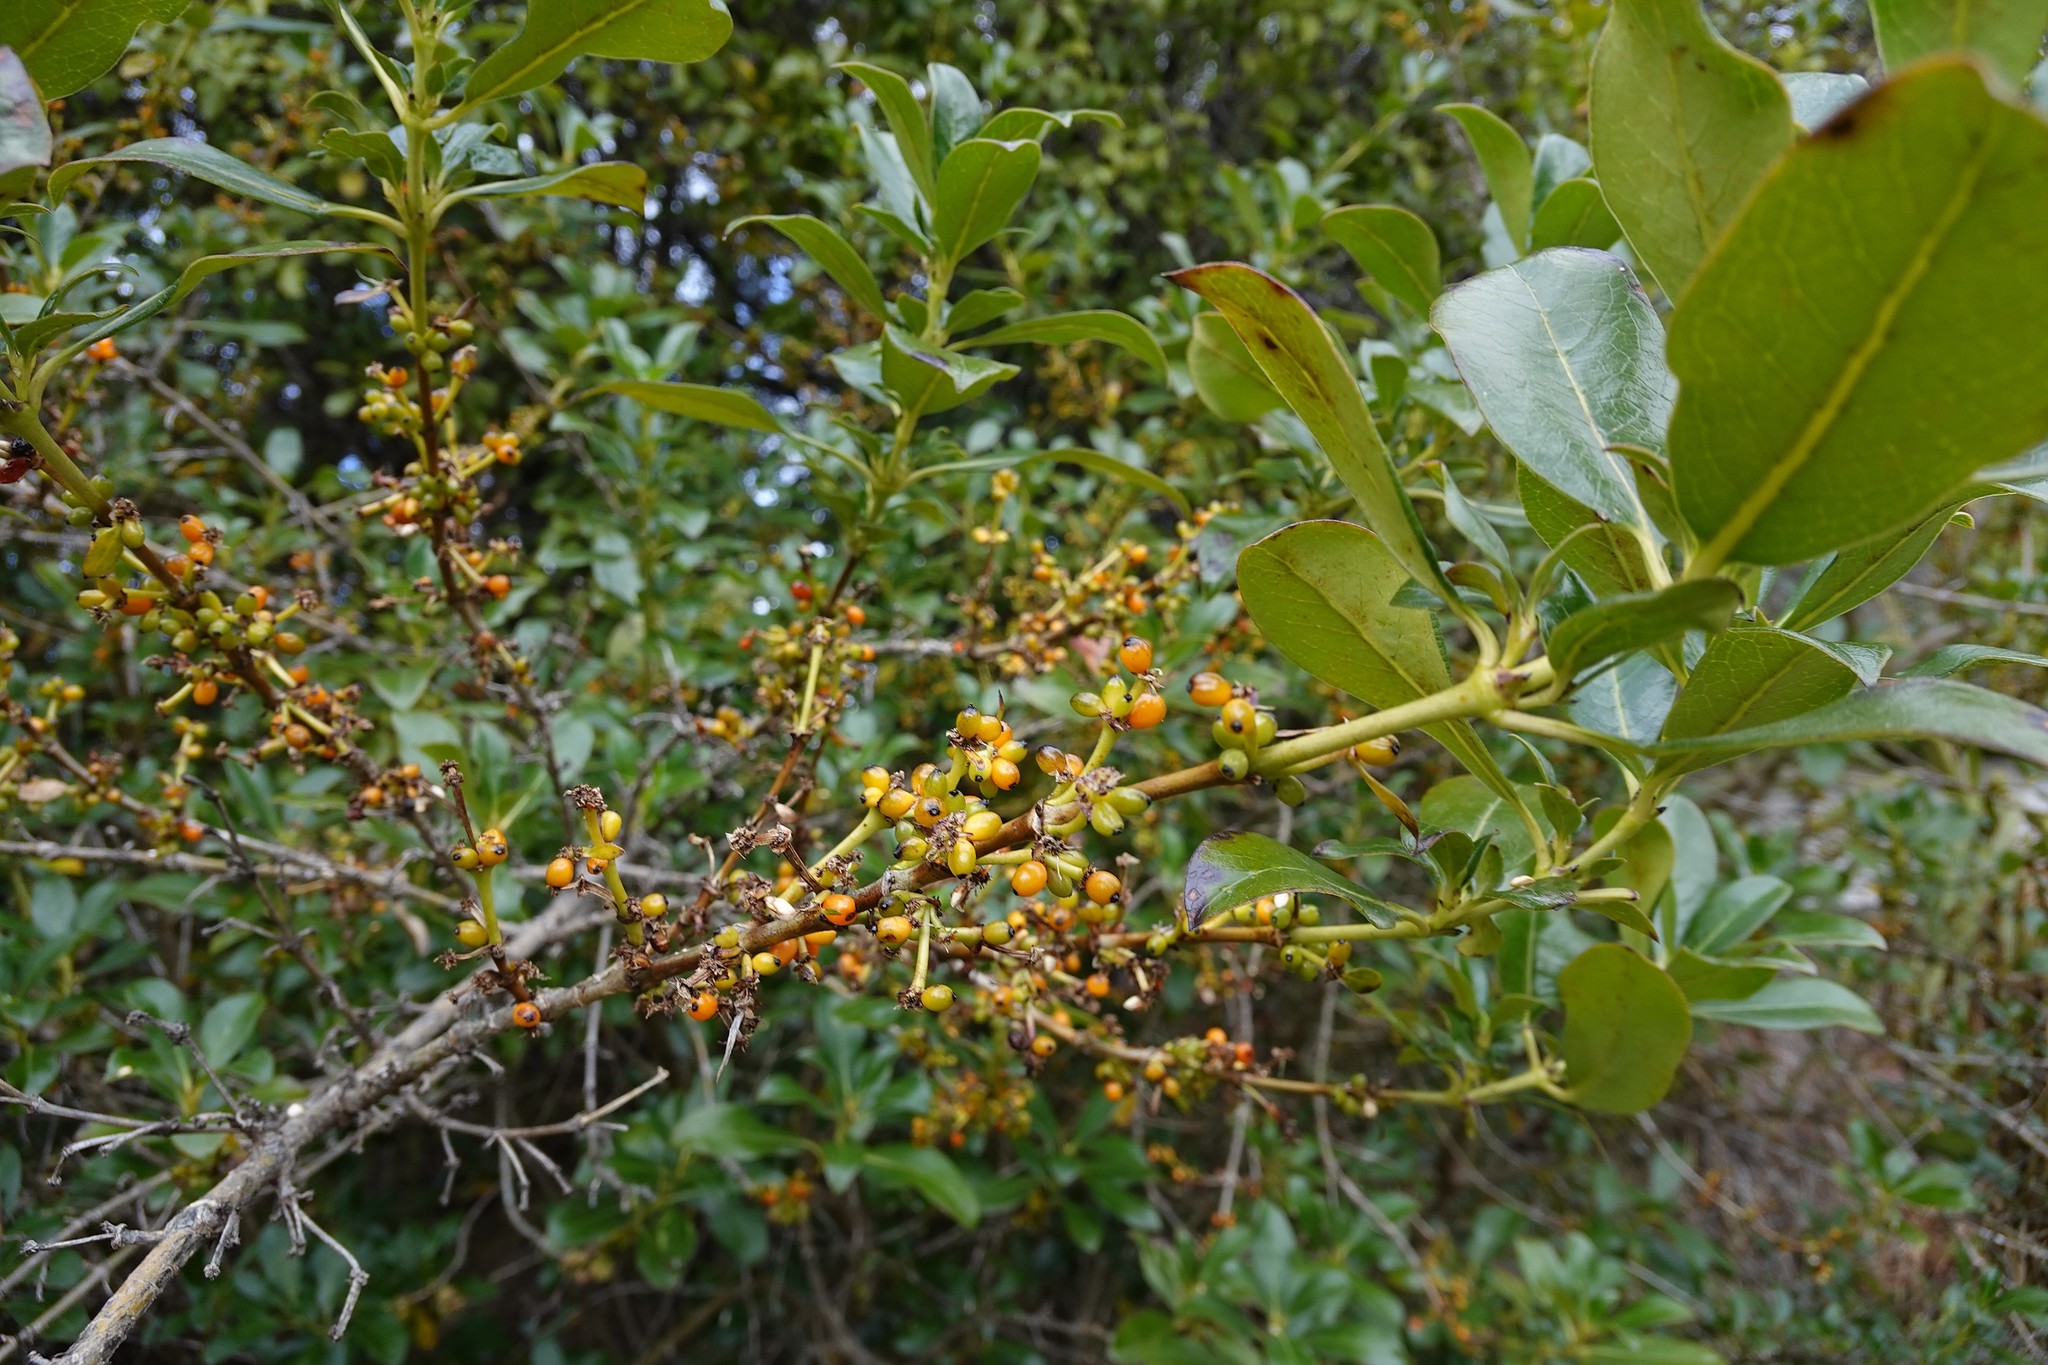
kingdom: Plantae
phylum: Tracheophyta
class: Magnoliopsida
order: Gentianales
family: Rubiaceae
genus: Coprosma
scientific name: Coprosma robusta
